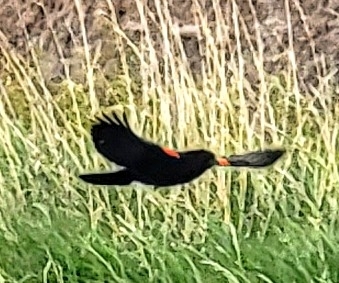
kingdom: Animalia
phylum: Chordata
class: Aves
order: Passeriformes
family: Icteridae
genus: Agelaius
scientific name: Agelaius phoeniceus
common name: Red-winged blackbird
